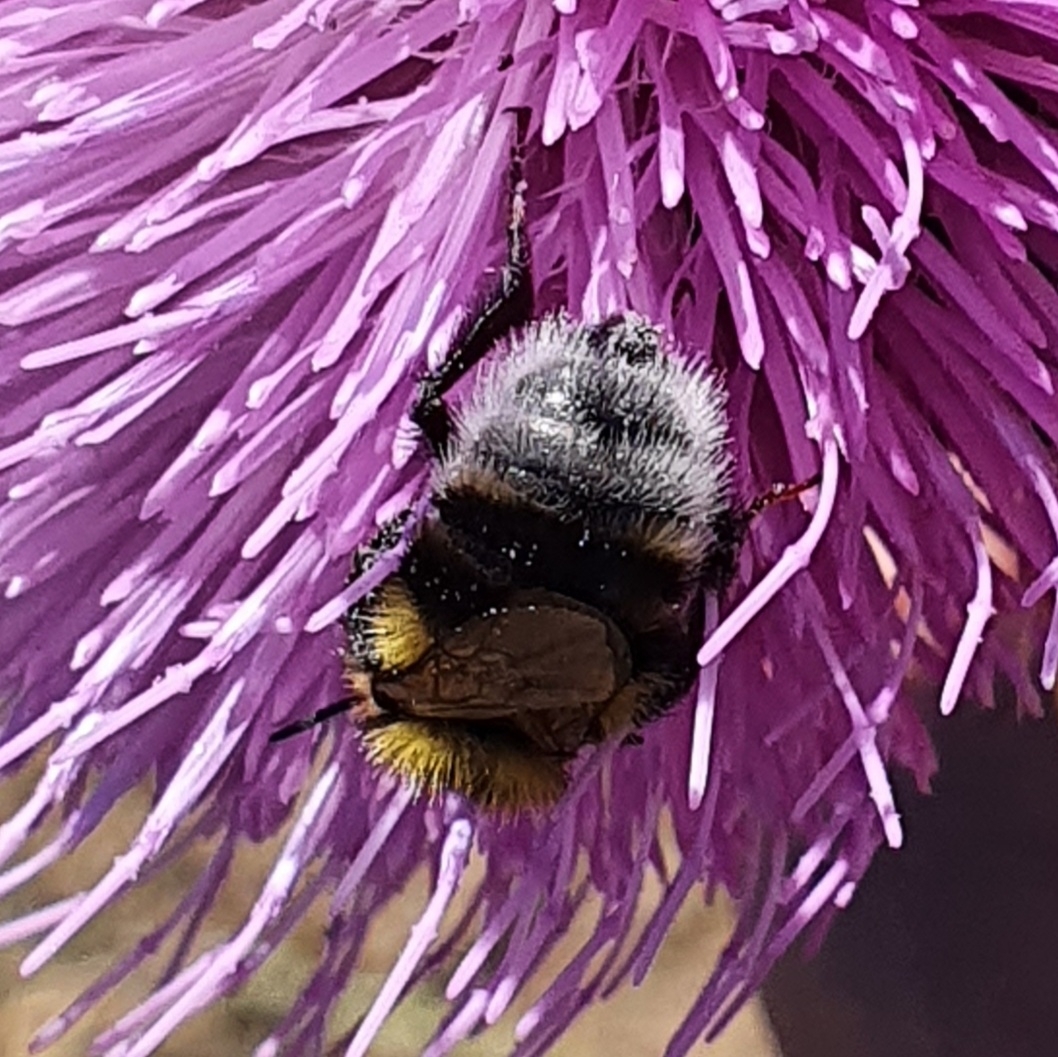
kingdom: Animalia
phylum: Arthropoda
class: Insecta
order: Hymenoptera
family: Apidae
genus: Bombus
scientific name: Bombus ruderatus
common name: Large garden bumblebee
